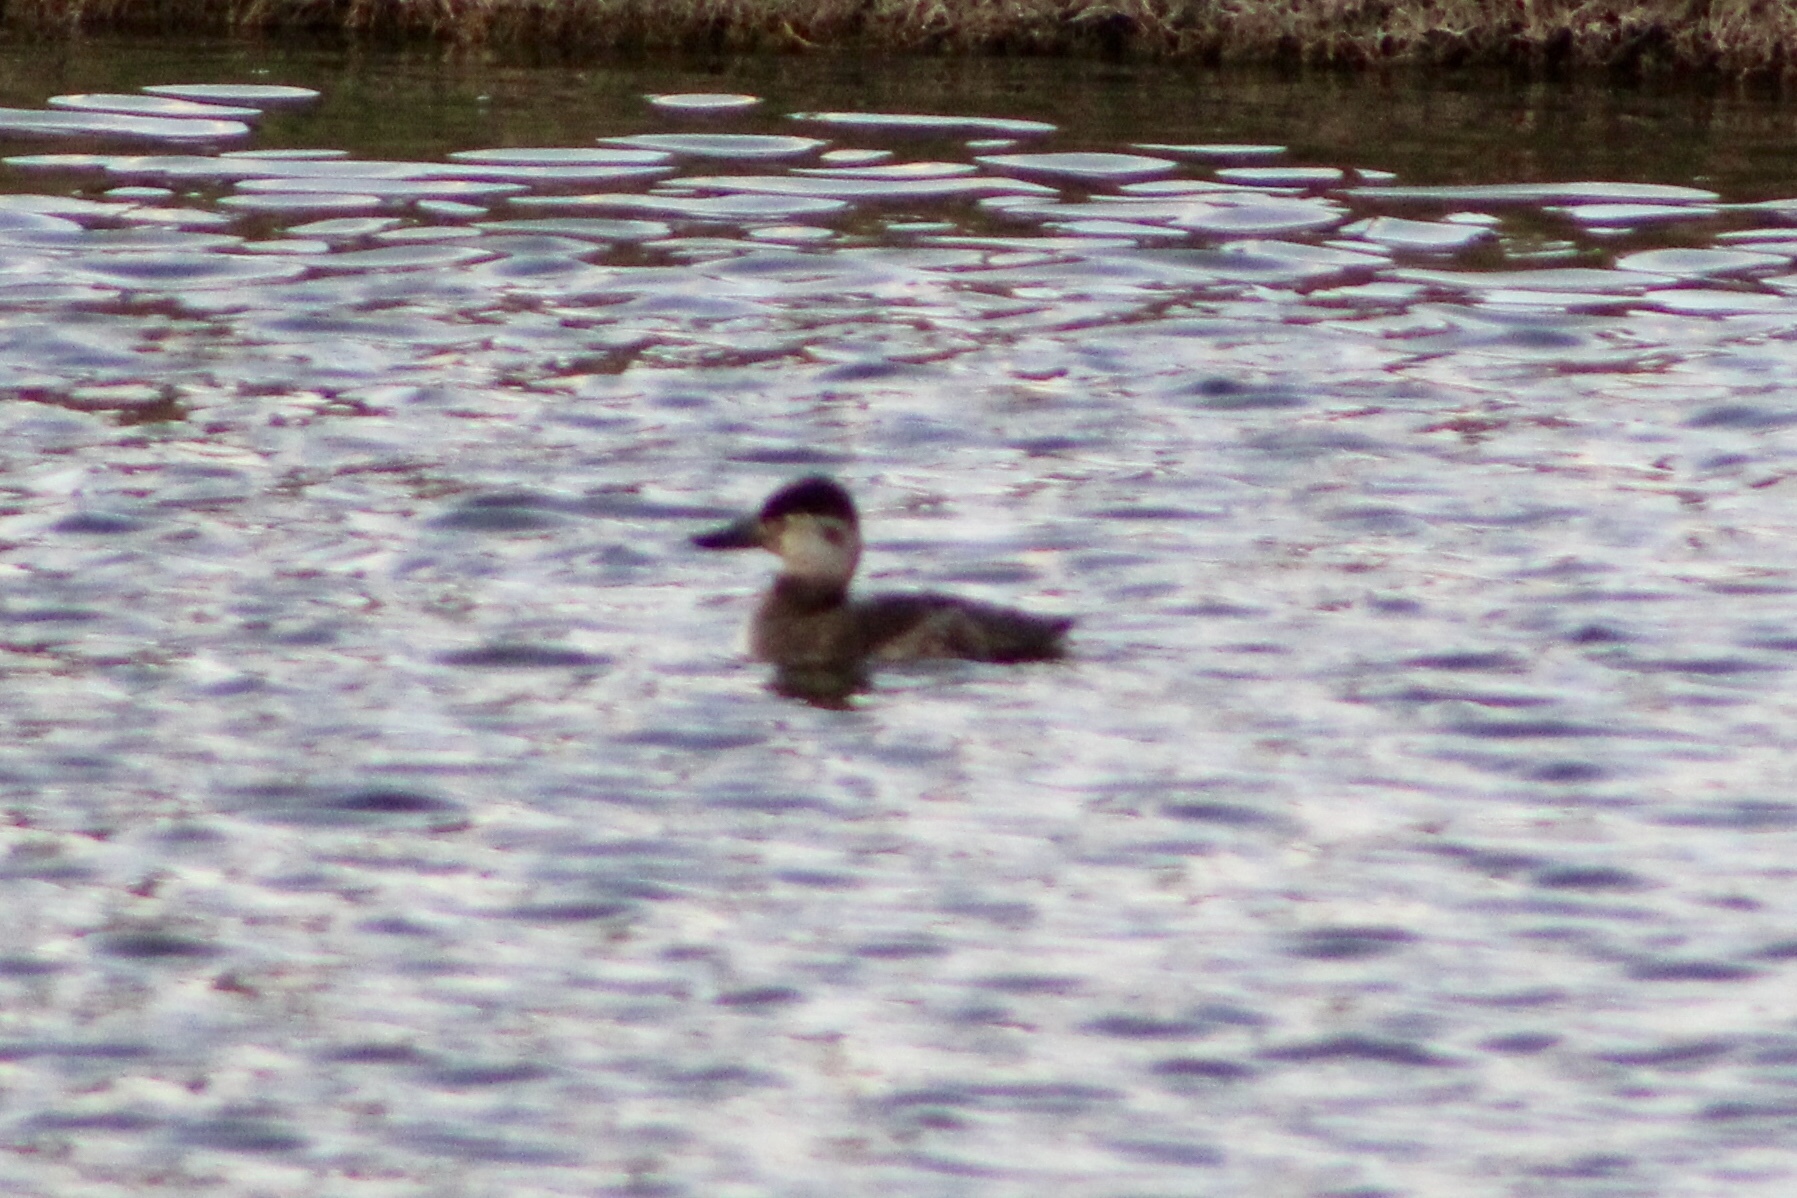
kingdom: Animalia
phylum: Chordata
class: Aves
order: Anseriformes
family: Anatidae
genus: Oxyura
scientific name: Oxyura jamaicensis
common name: Ruddy duck
